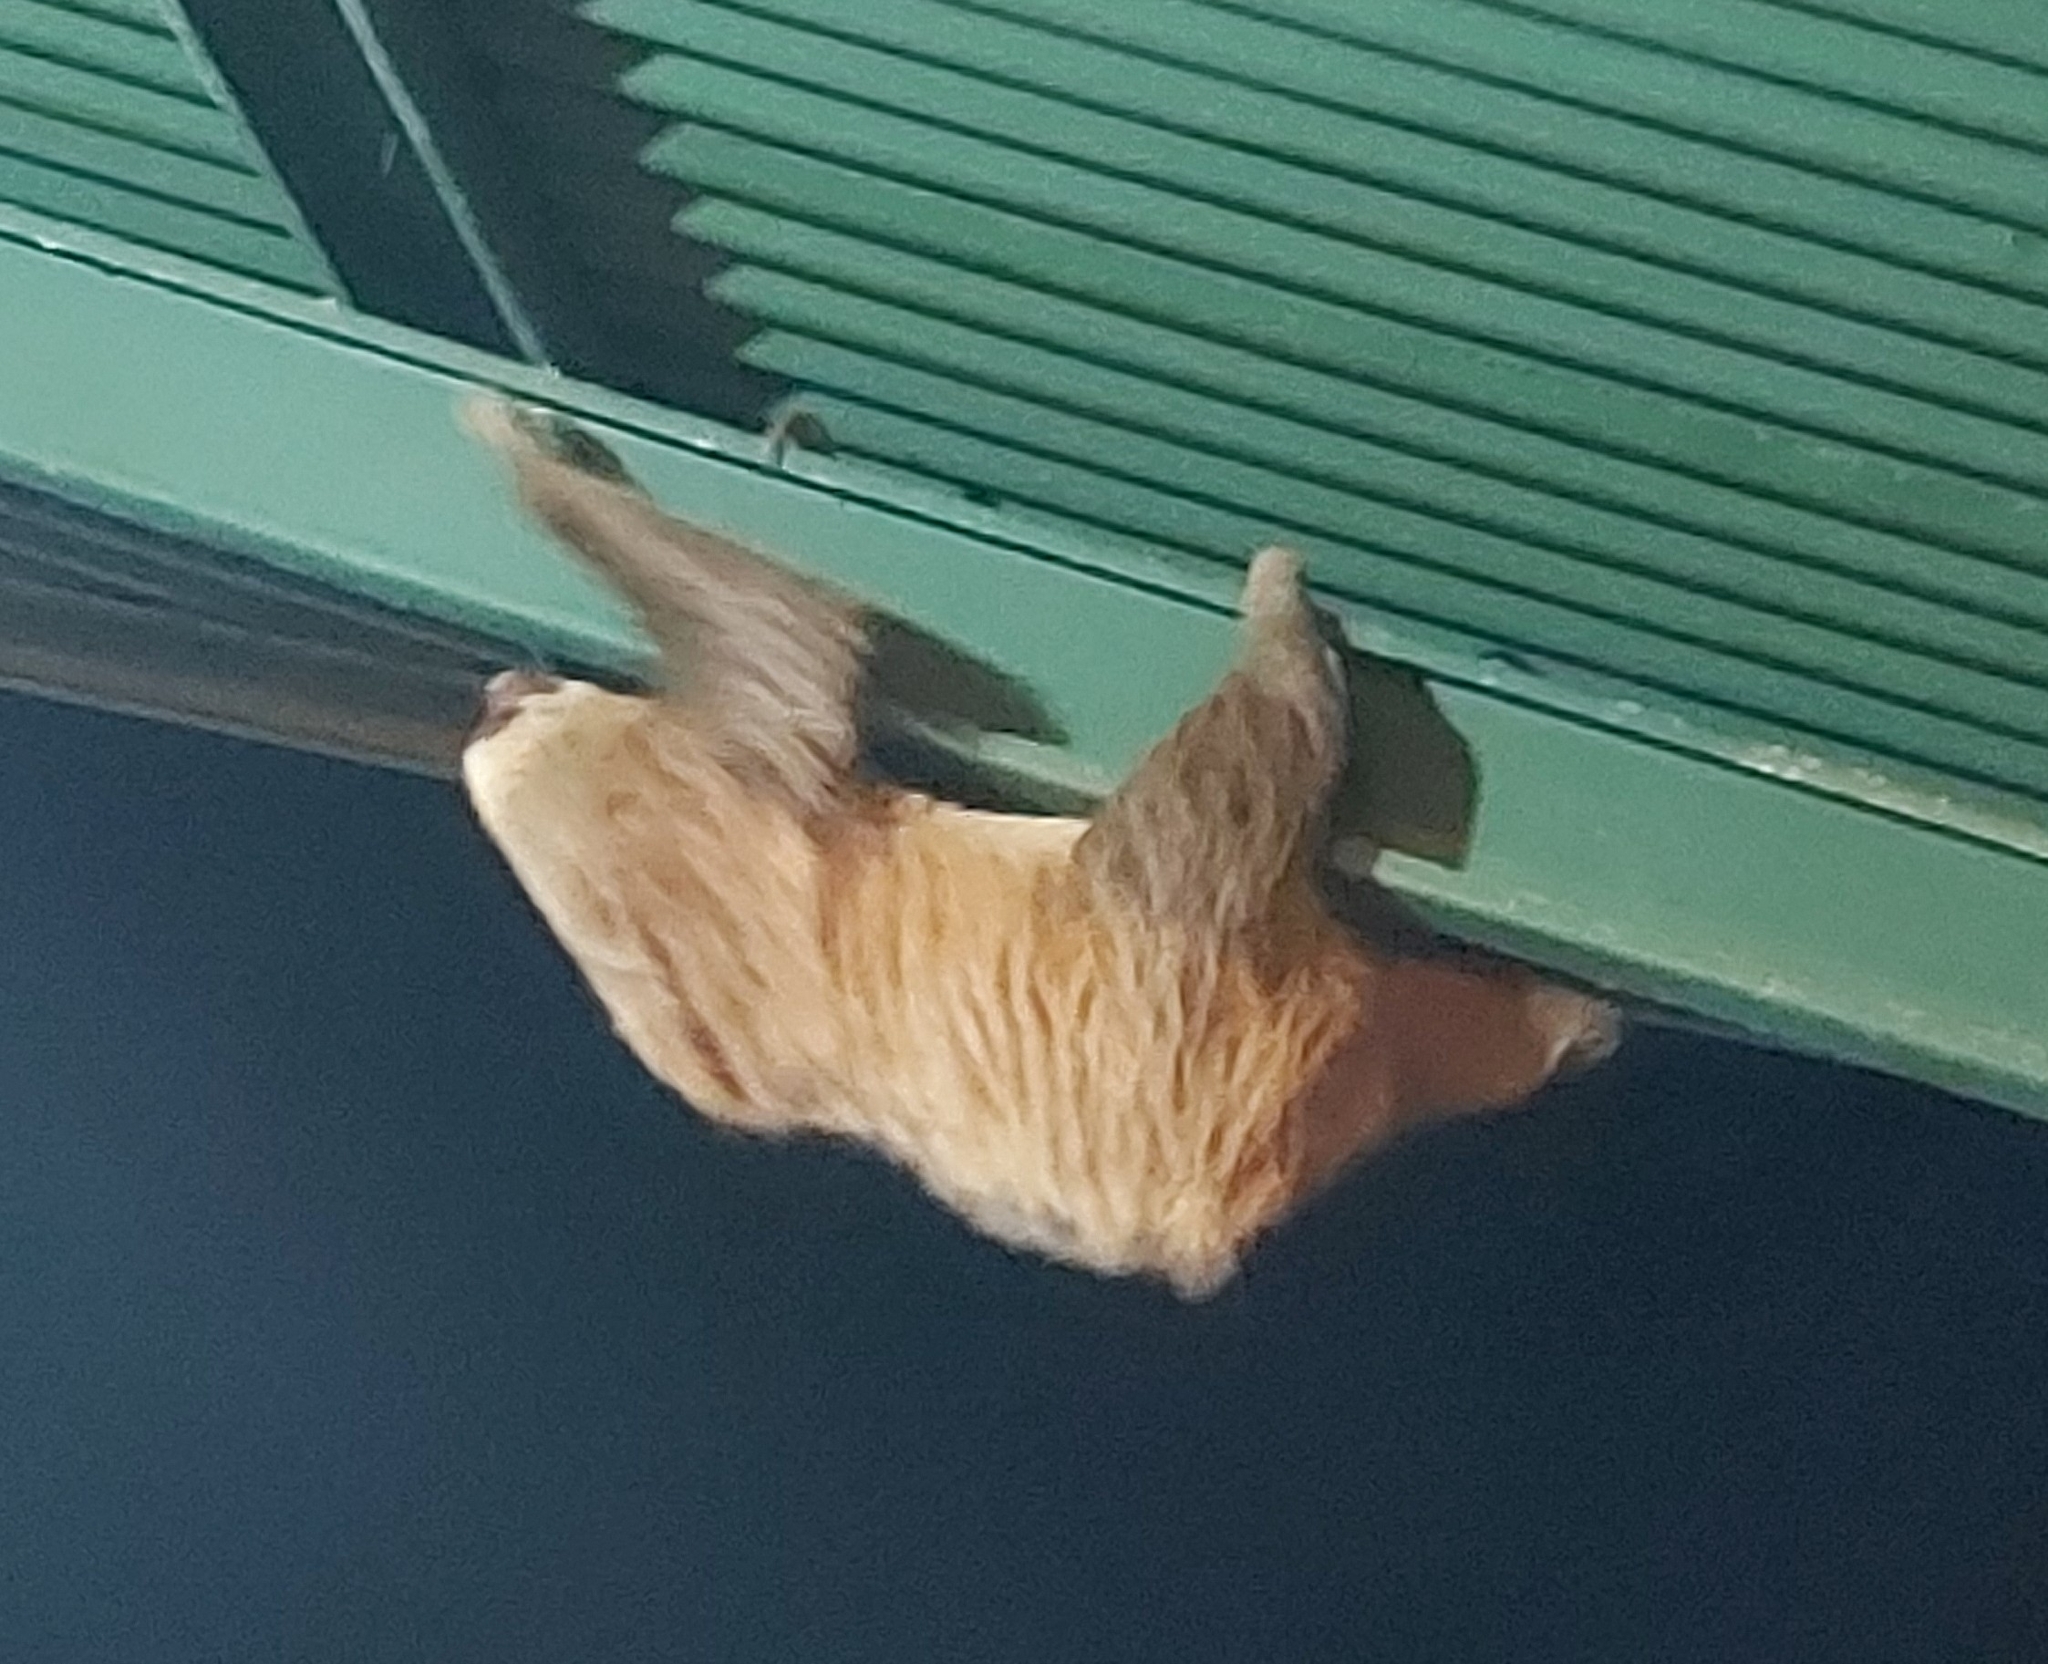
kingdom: Animalia
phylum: Chordata
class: Mammalia
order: Pilosa
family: Megalonychidae
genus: Choloepus
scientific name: Choloepus hoffmanni
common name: Hoffmann's two-toed sloth
